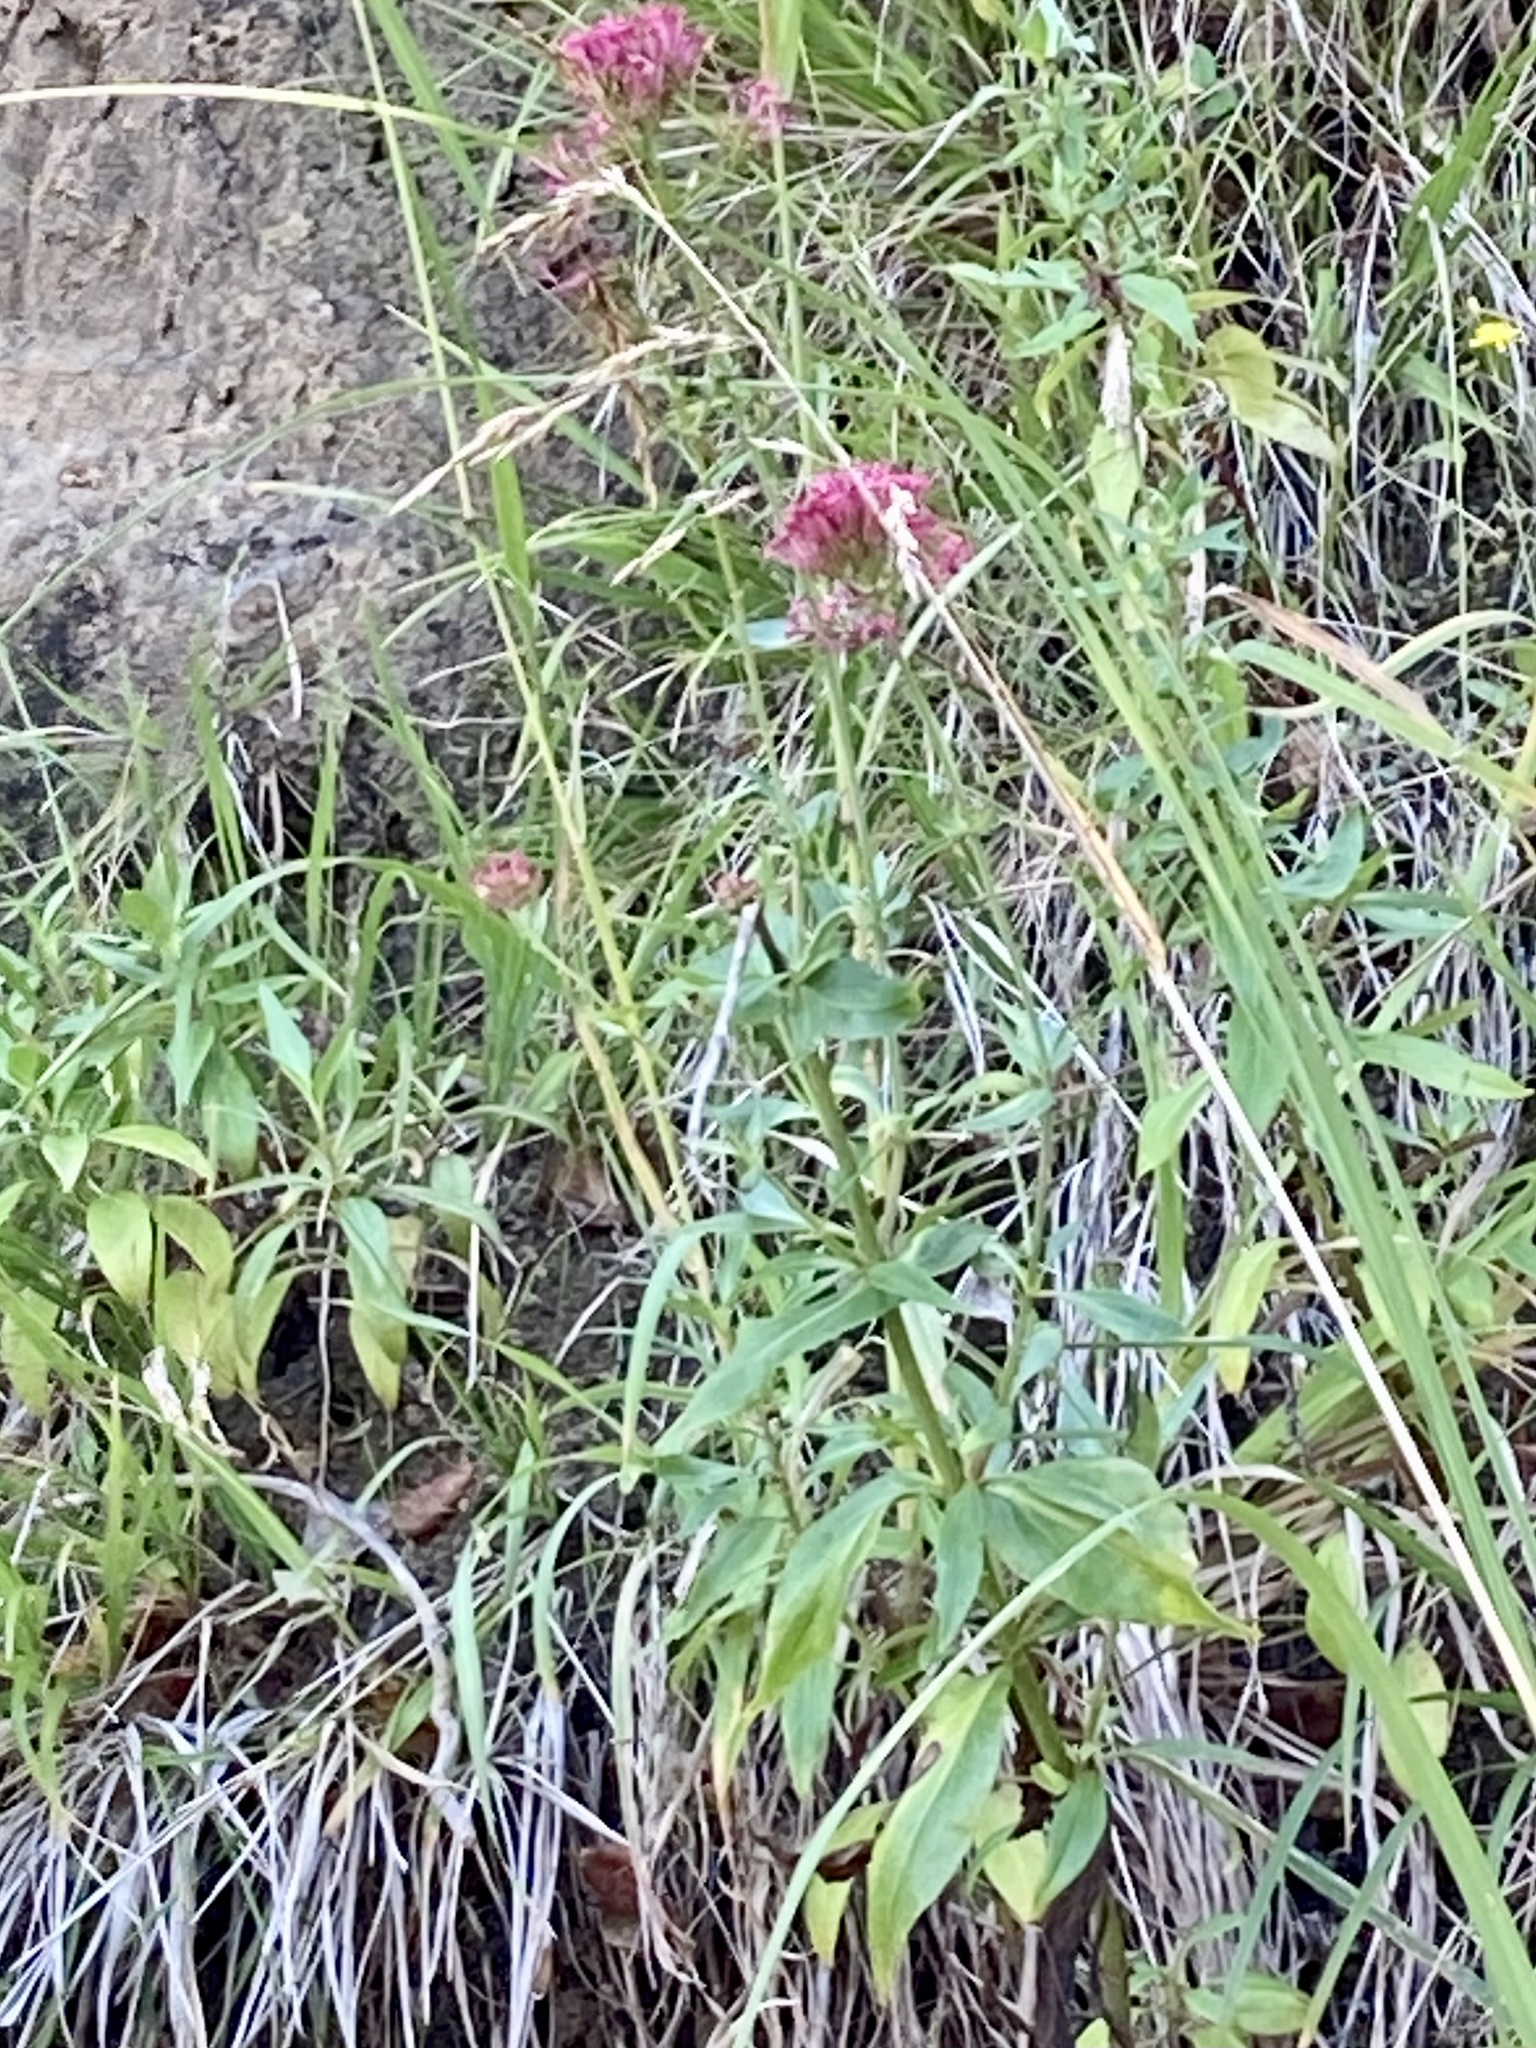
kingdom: Plantae
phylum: Tracheophyta
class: Magnoliopsida
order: Dipsacales
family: Caprifoliaceae
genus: Centranthus
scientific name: Centranthus ruber
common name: Red valerian
